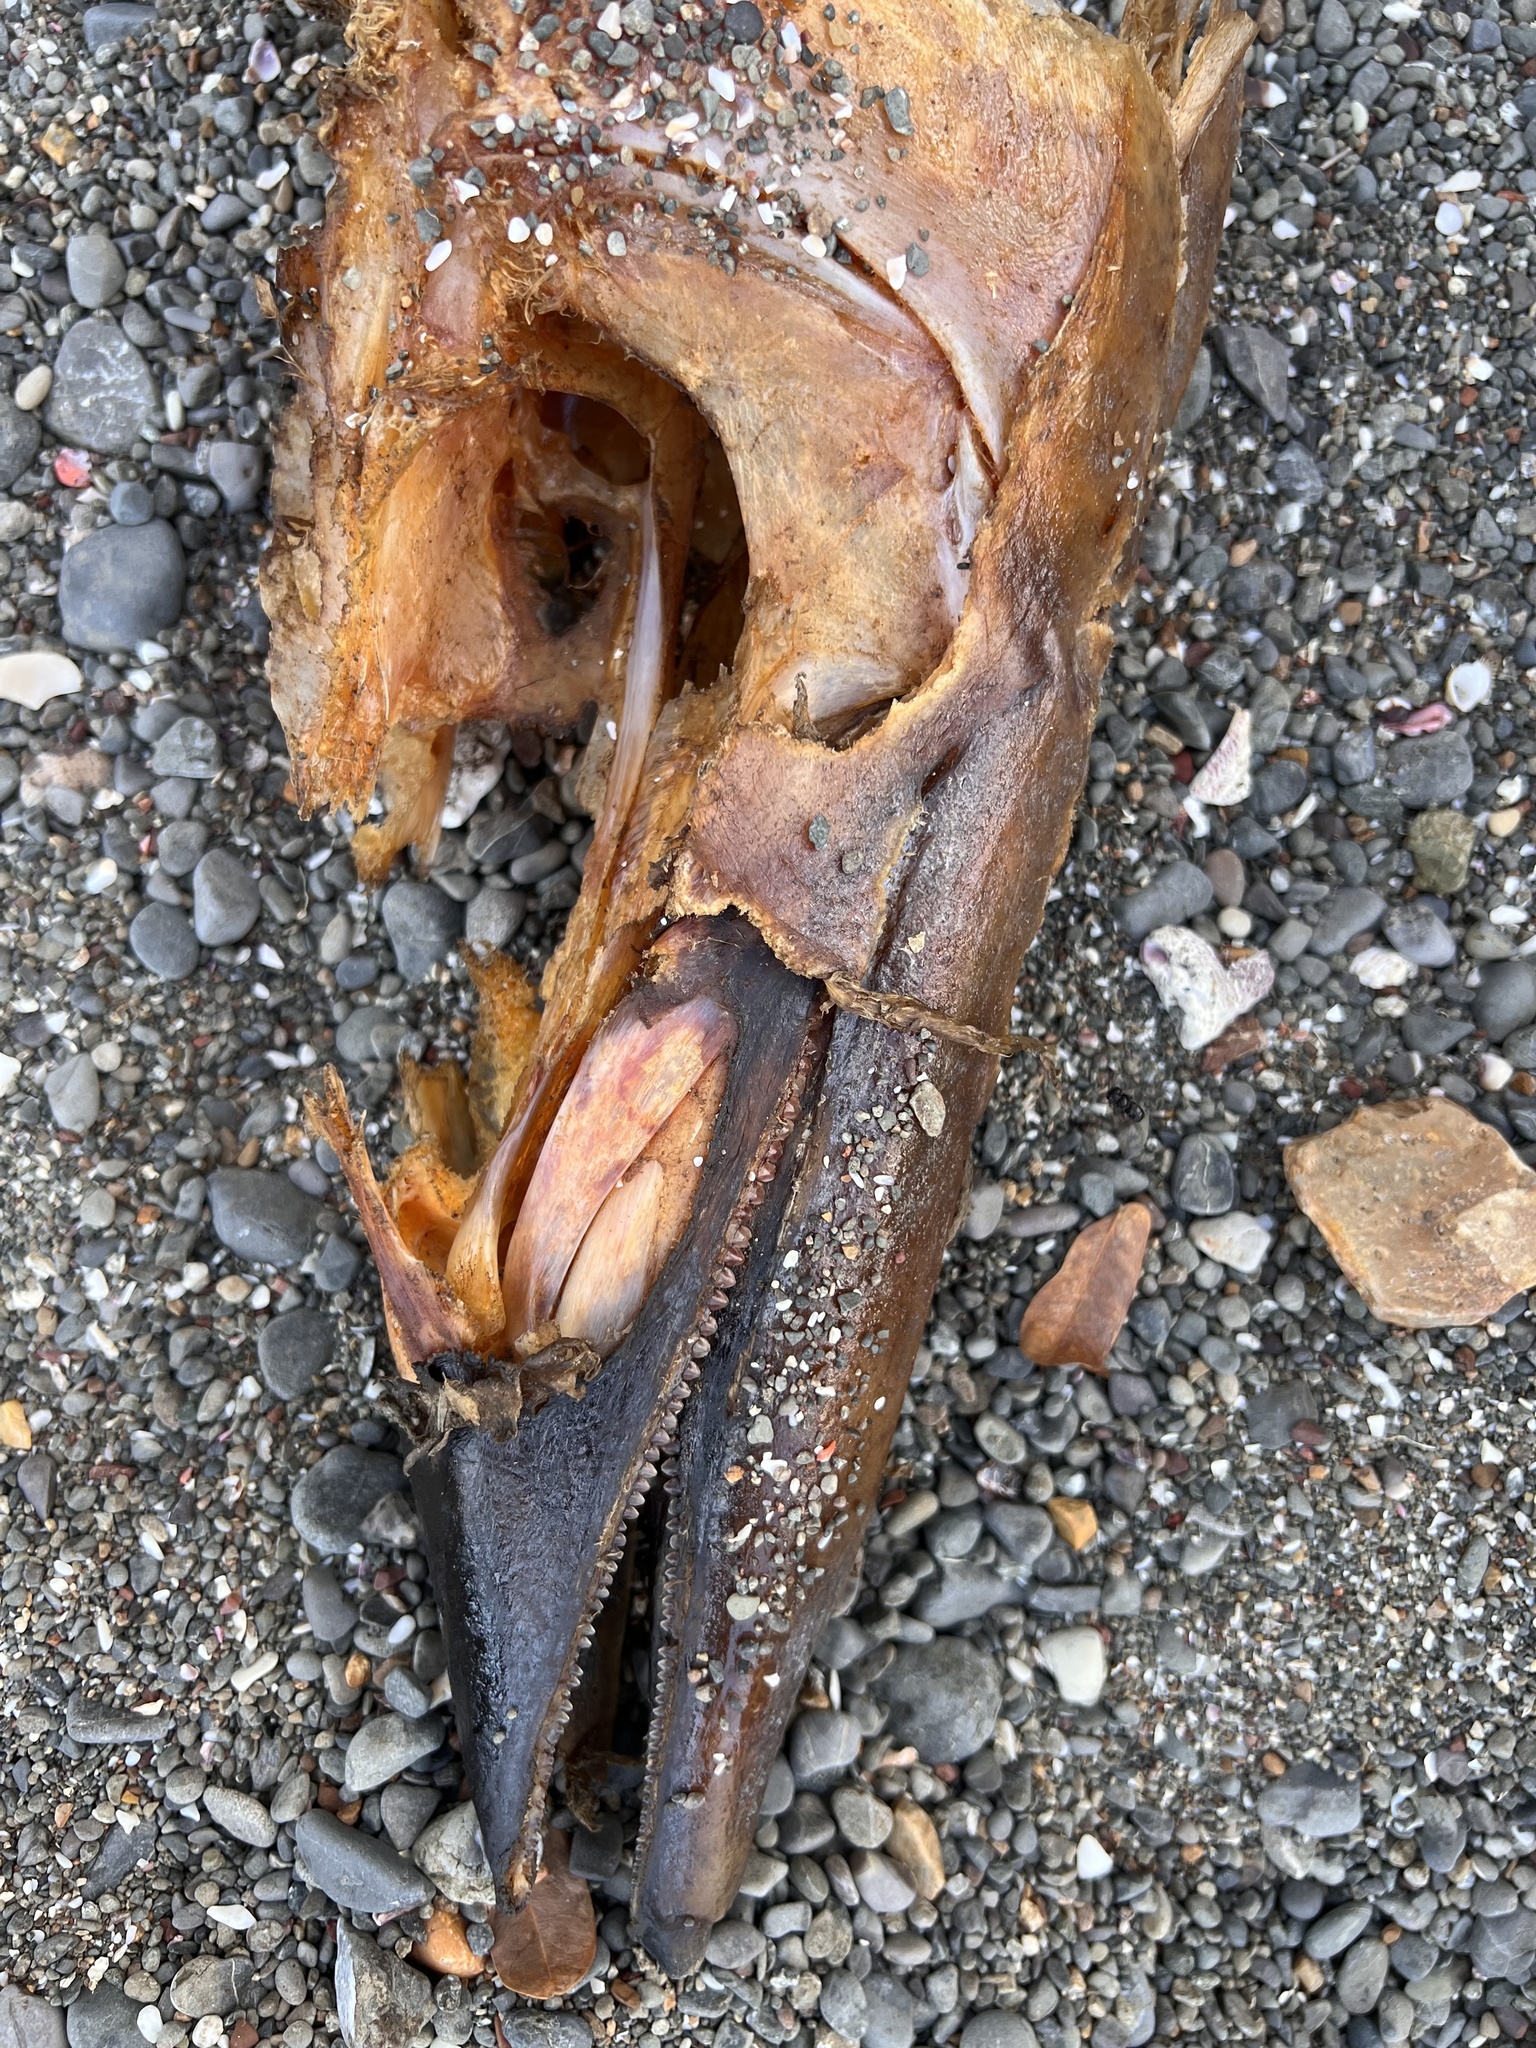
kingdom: Animalia
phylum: Chordata
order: Perciformes
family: Scombridae
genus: Acanthocybium
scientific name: Acanthocybium solandri
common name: Wahoo
